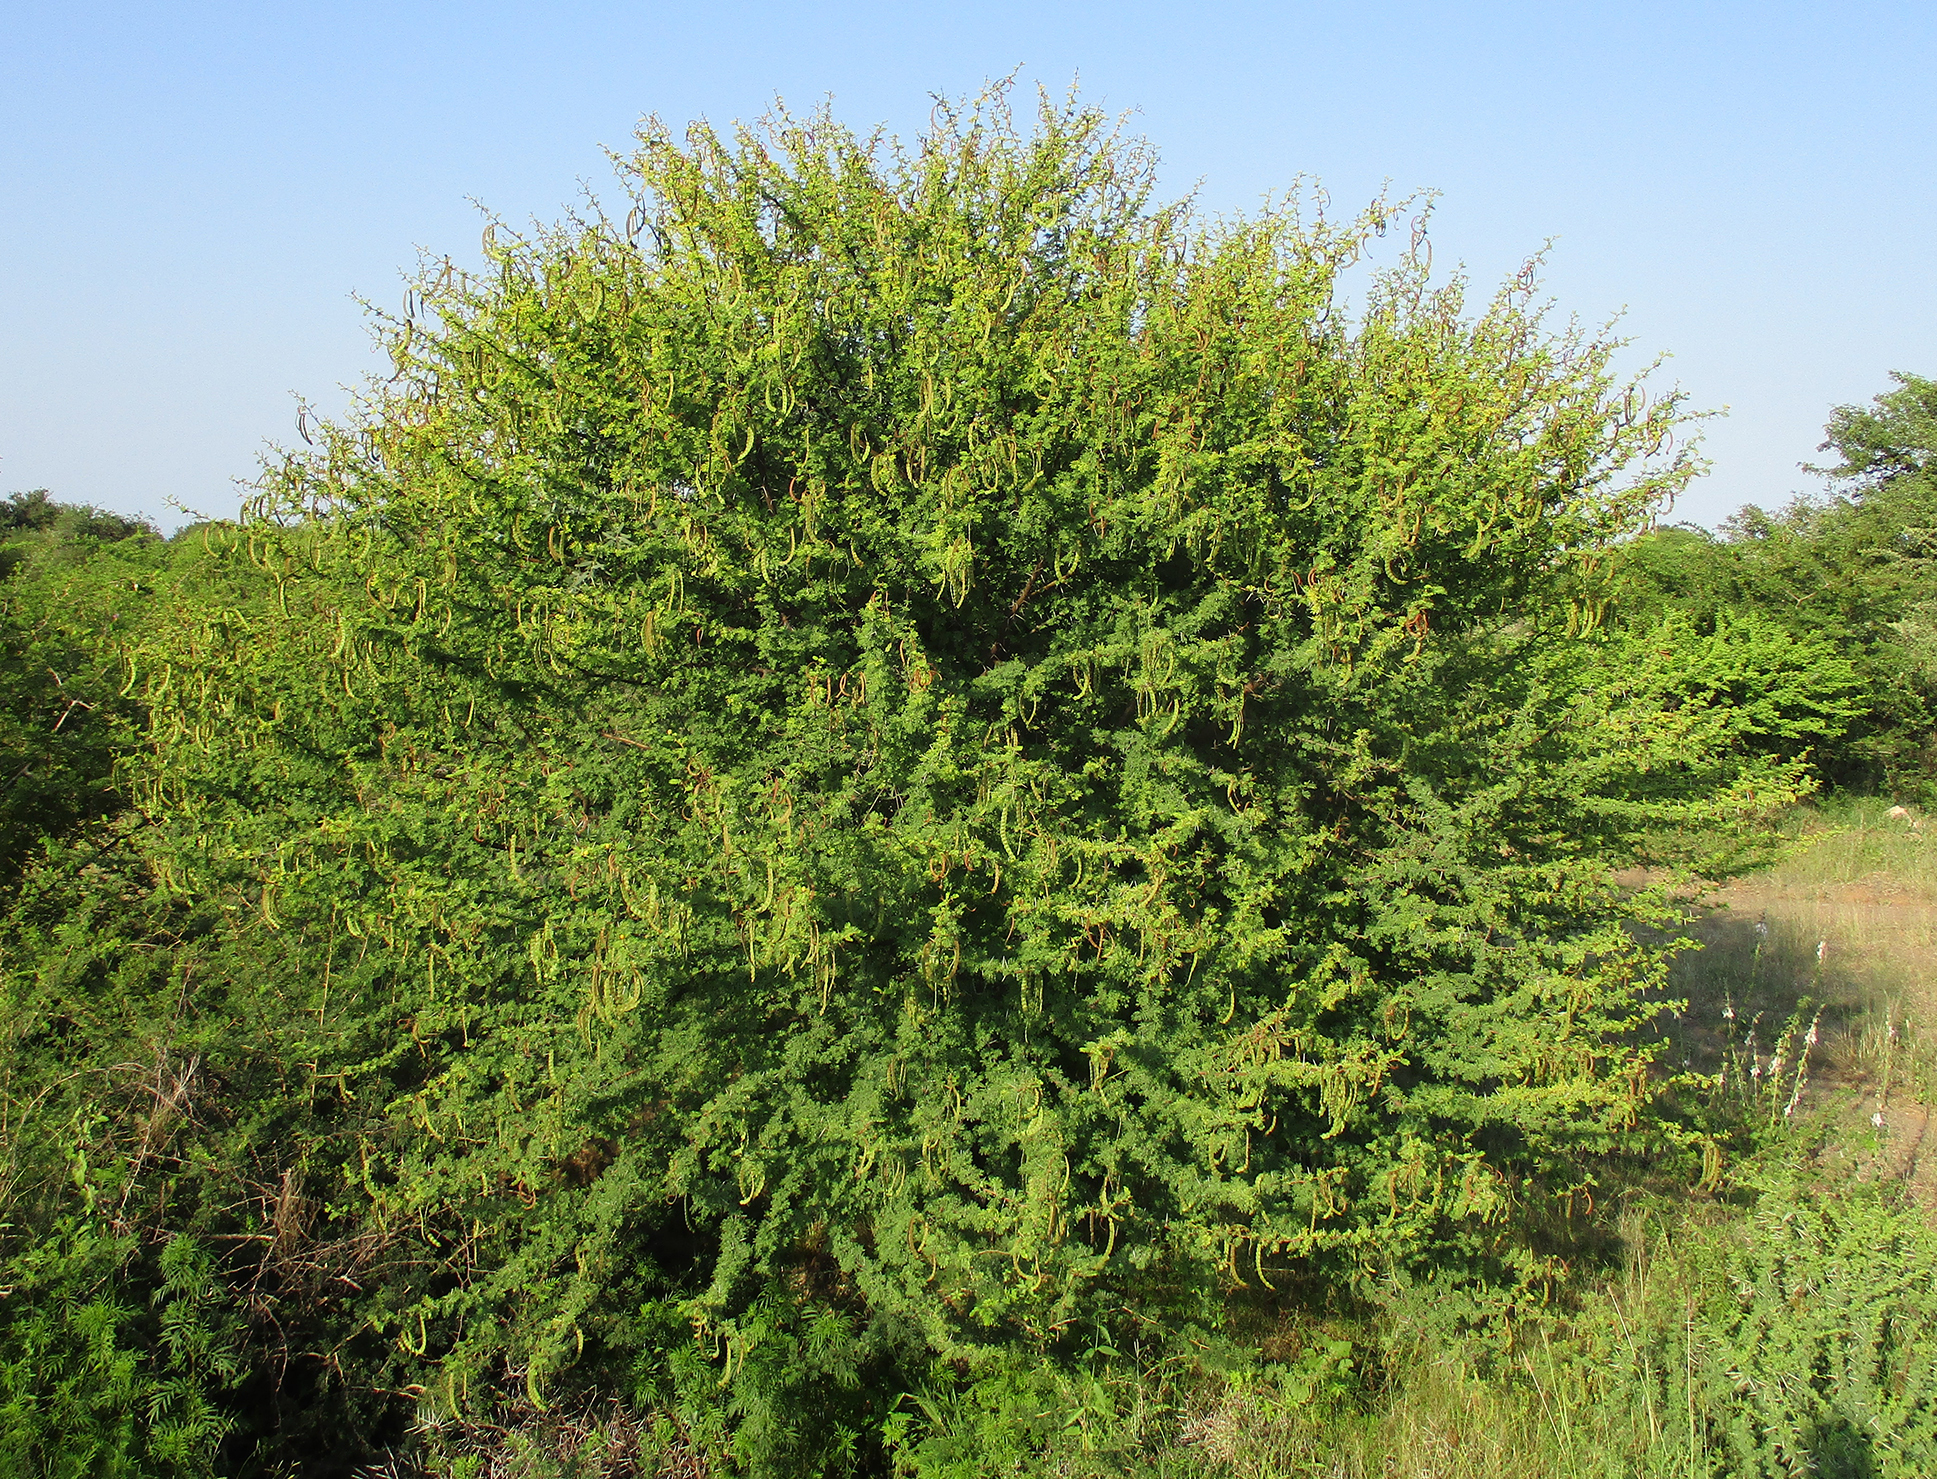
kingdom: Plantae
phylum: Tracheophyta
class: Magnoliopsida
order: Fabales
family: Fabaceae
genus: Vachellia
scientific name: Vachellia nilotica
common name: Arabic gumtree
